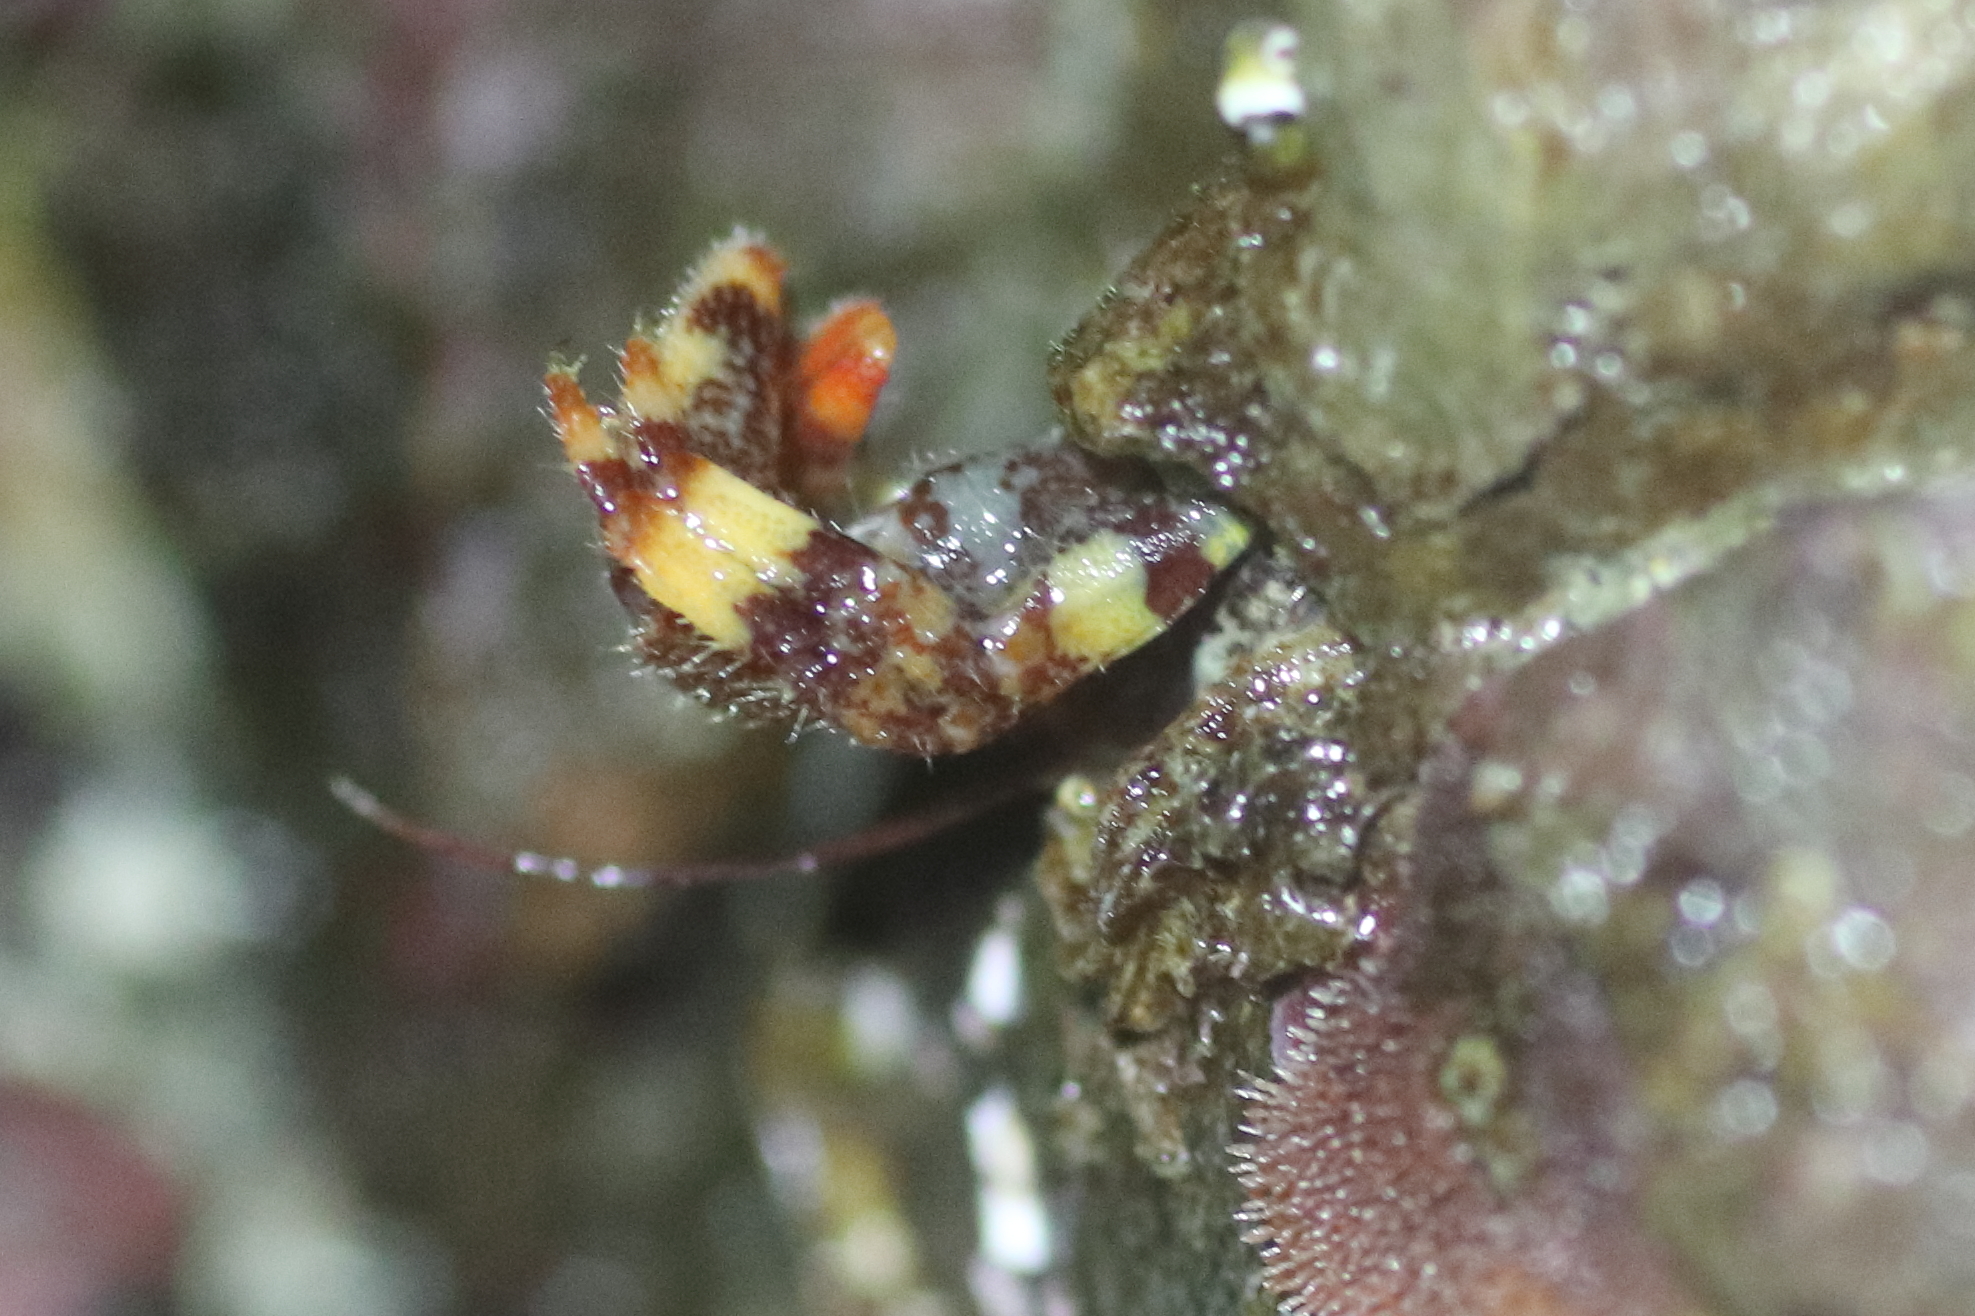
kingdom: Animalia
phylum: Arthropoda
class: Malacostraca
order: Decapoda
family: Paguridae
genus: Discorsopagurus
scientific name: Discorsopagurus schmitti
